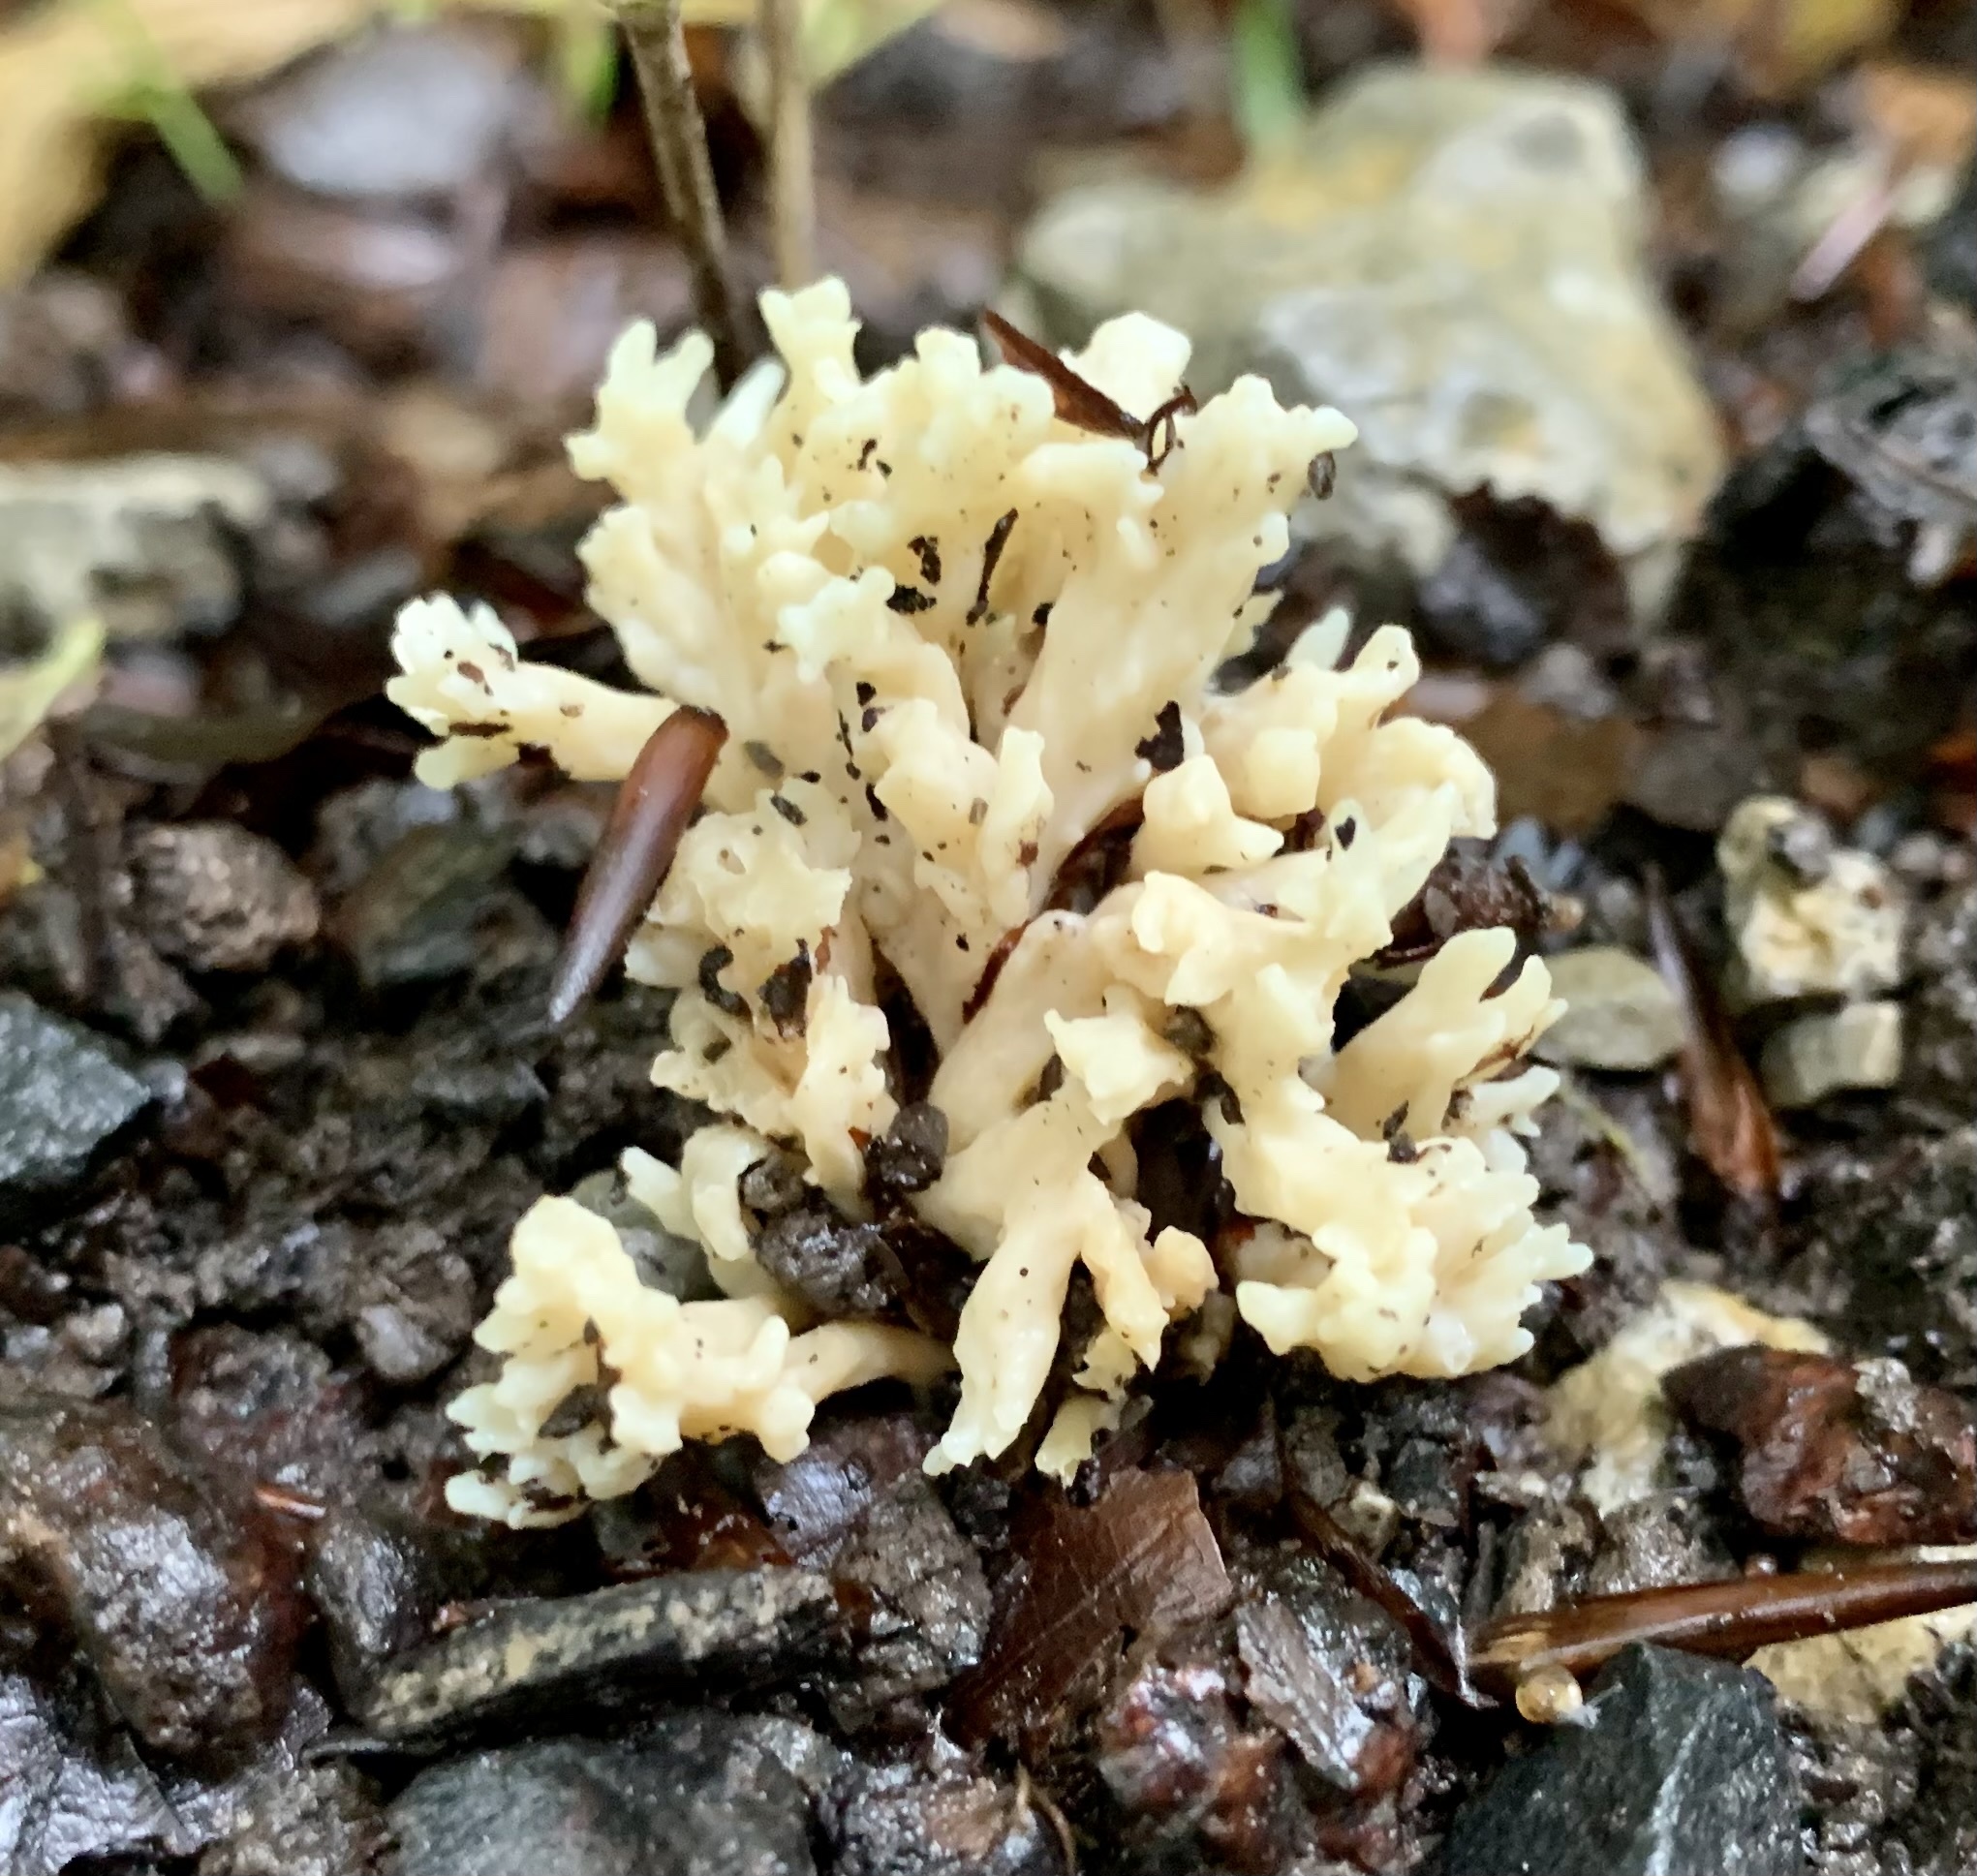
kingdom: Fungi
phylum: Basidiomycota
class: Agaricomycetes
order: Cantharellales
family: Hydnaceae
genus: Clavulina
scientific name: Clavulina coralloides
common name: Crested coral
